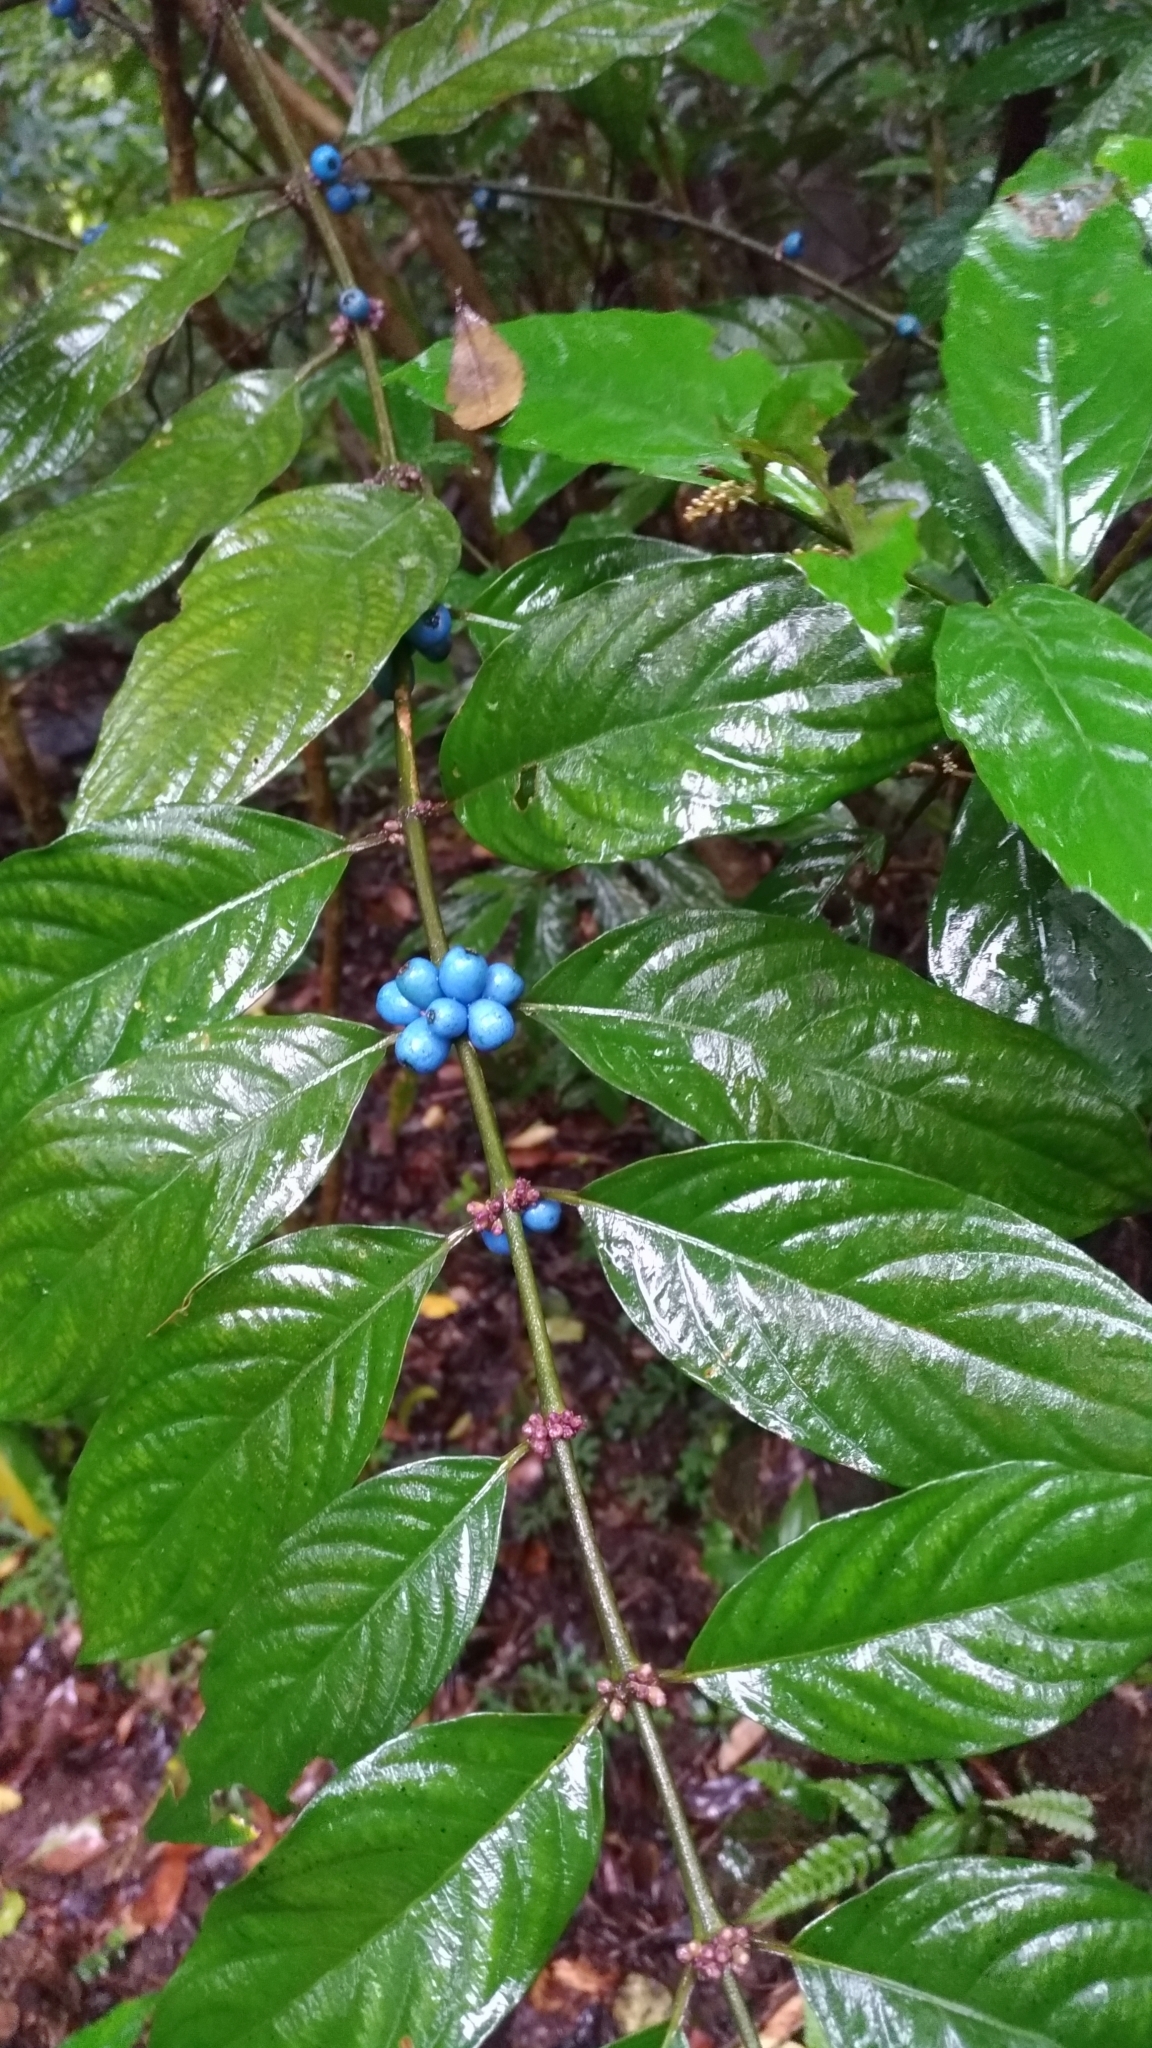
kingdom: Plantae
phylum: Tracheophyta
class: Magnoliopsida
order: Gentianales
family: Rubiaceae
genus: Lasianthus
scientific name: Lasianthus fordii
